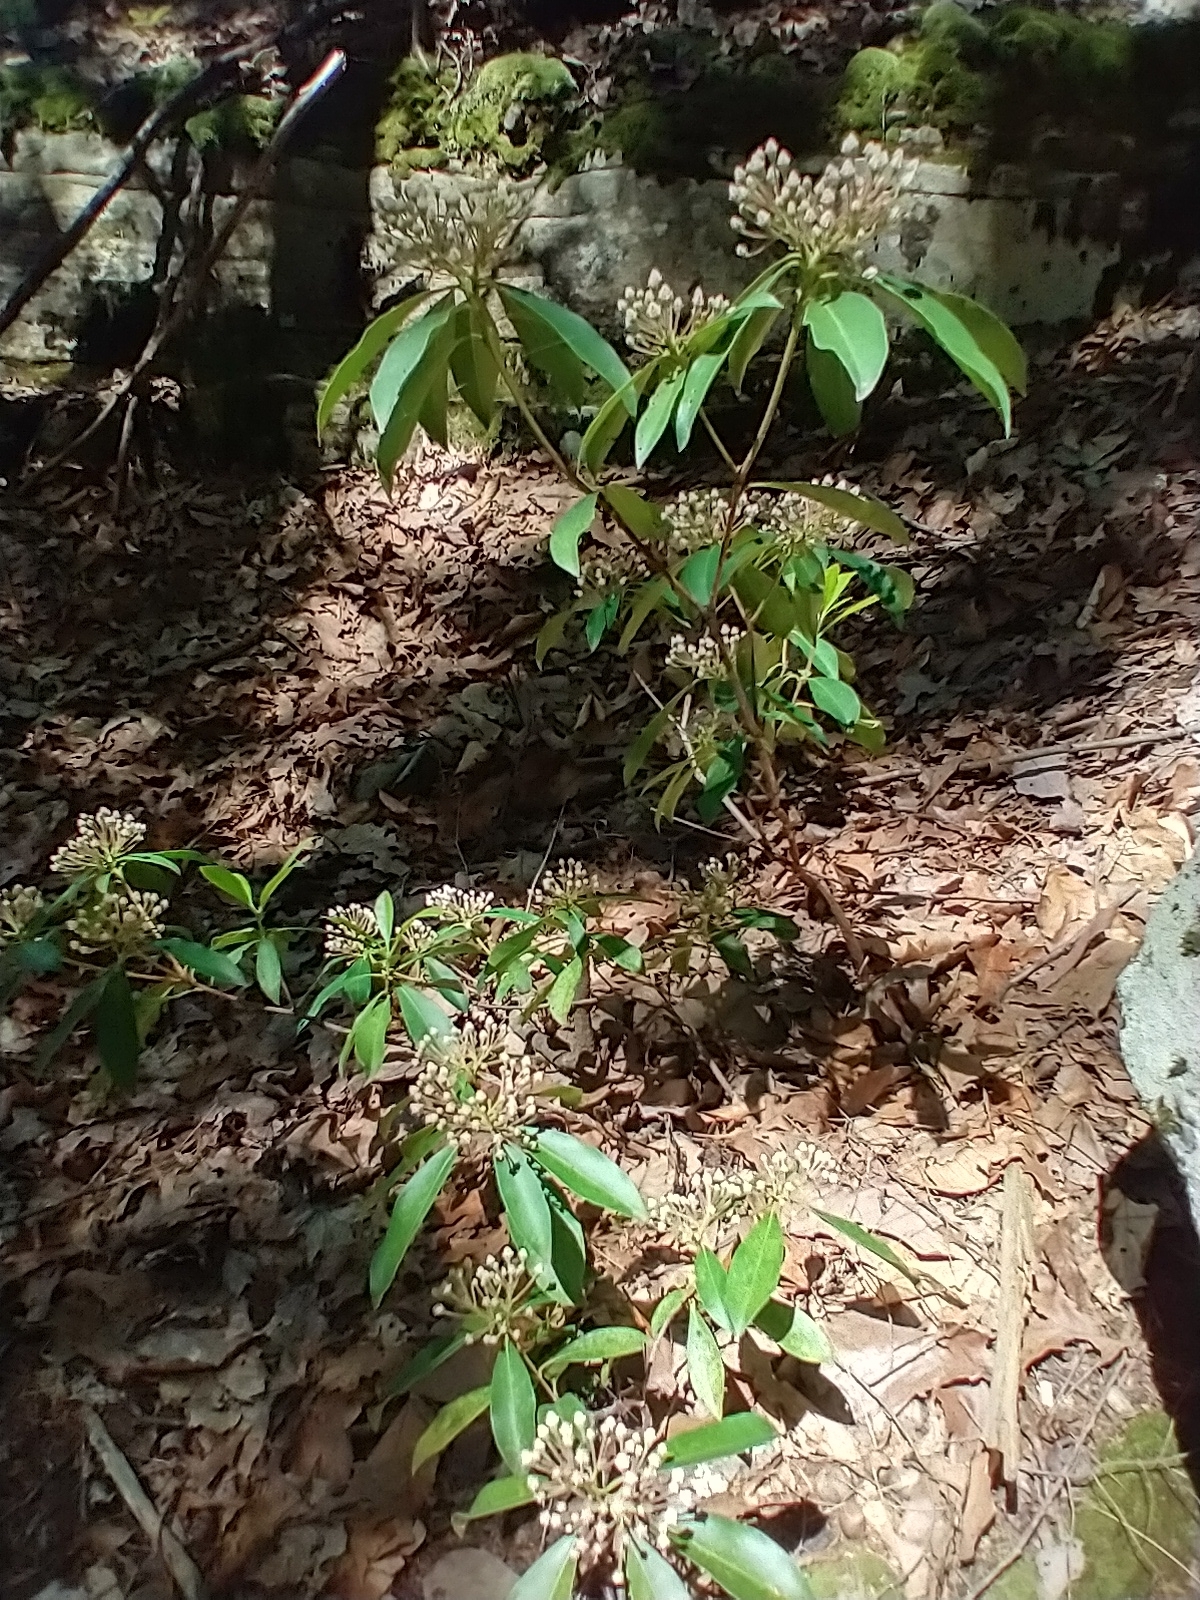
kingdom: Plantae
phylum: Tracheophyta
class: Magnoliopsida
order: Ericales
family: Ericaceae
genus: Kalmia
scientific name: Kalmia latifolia
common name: Mountain-laurel
